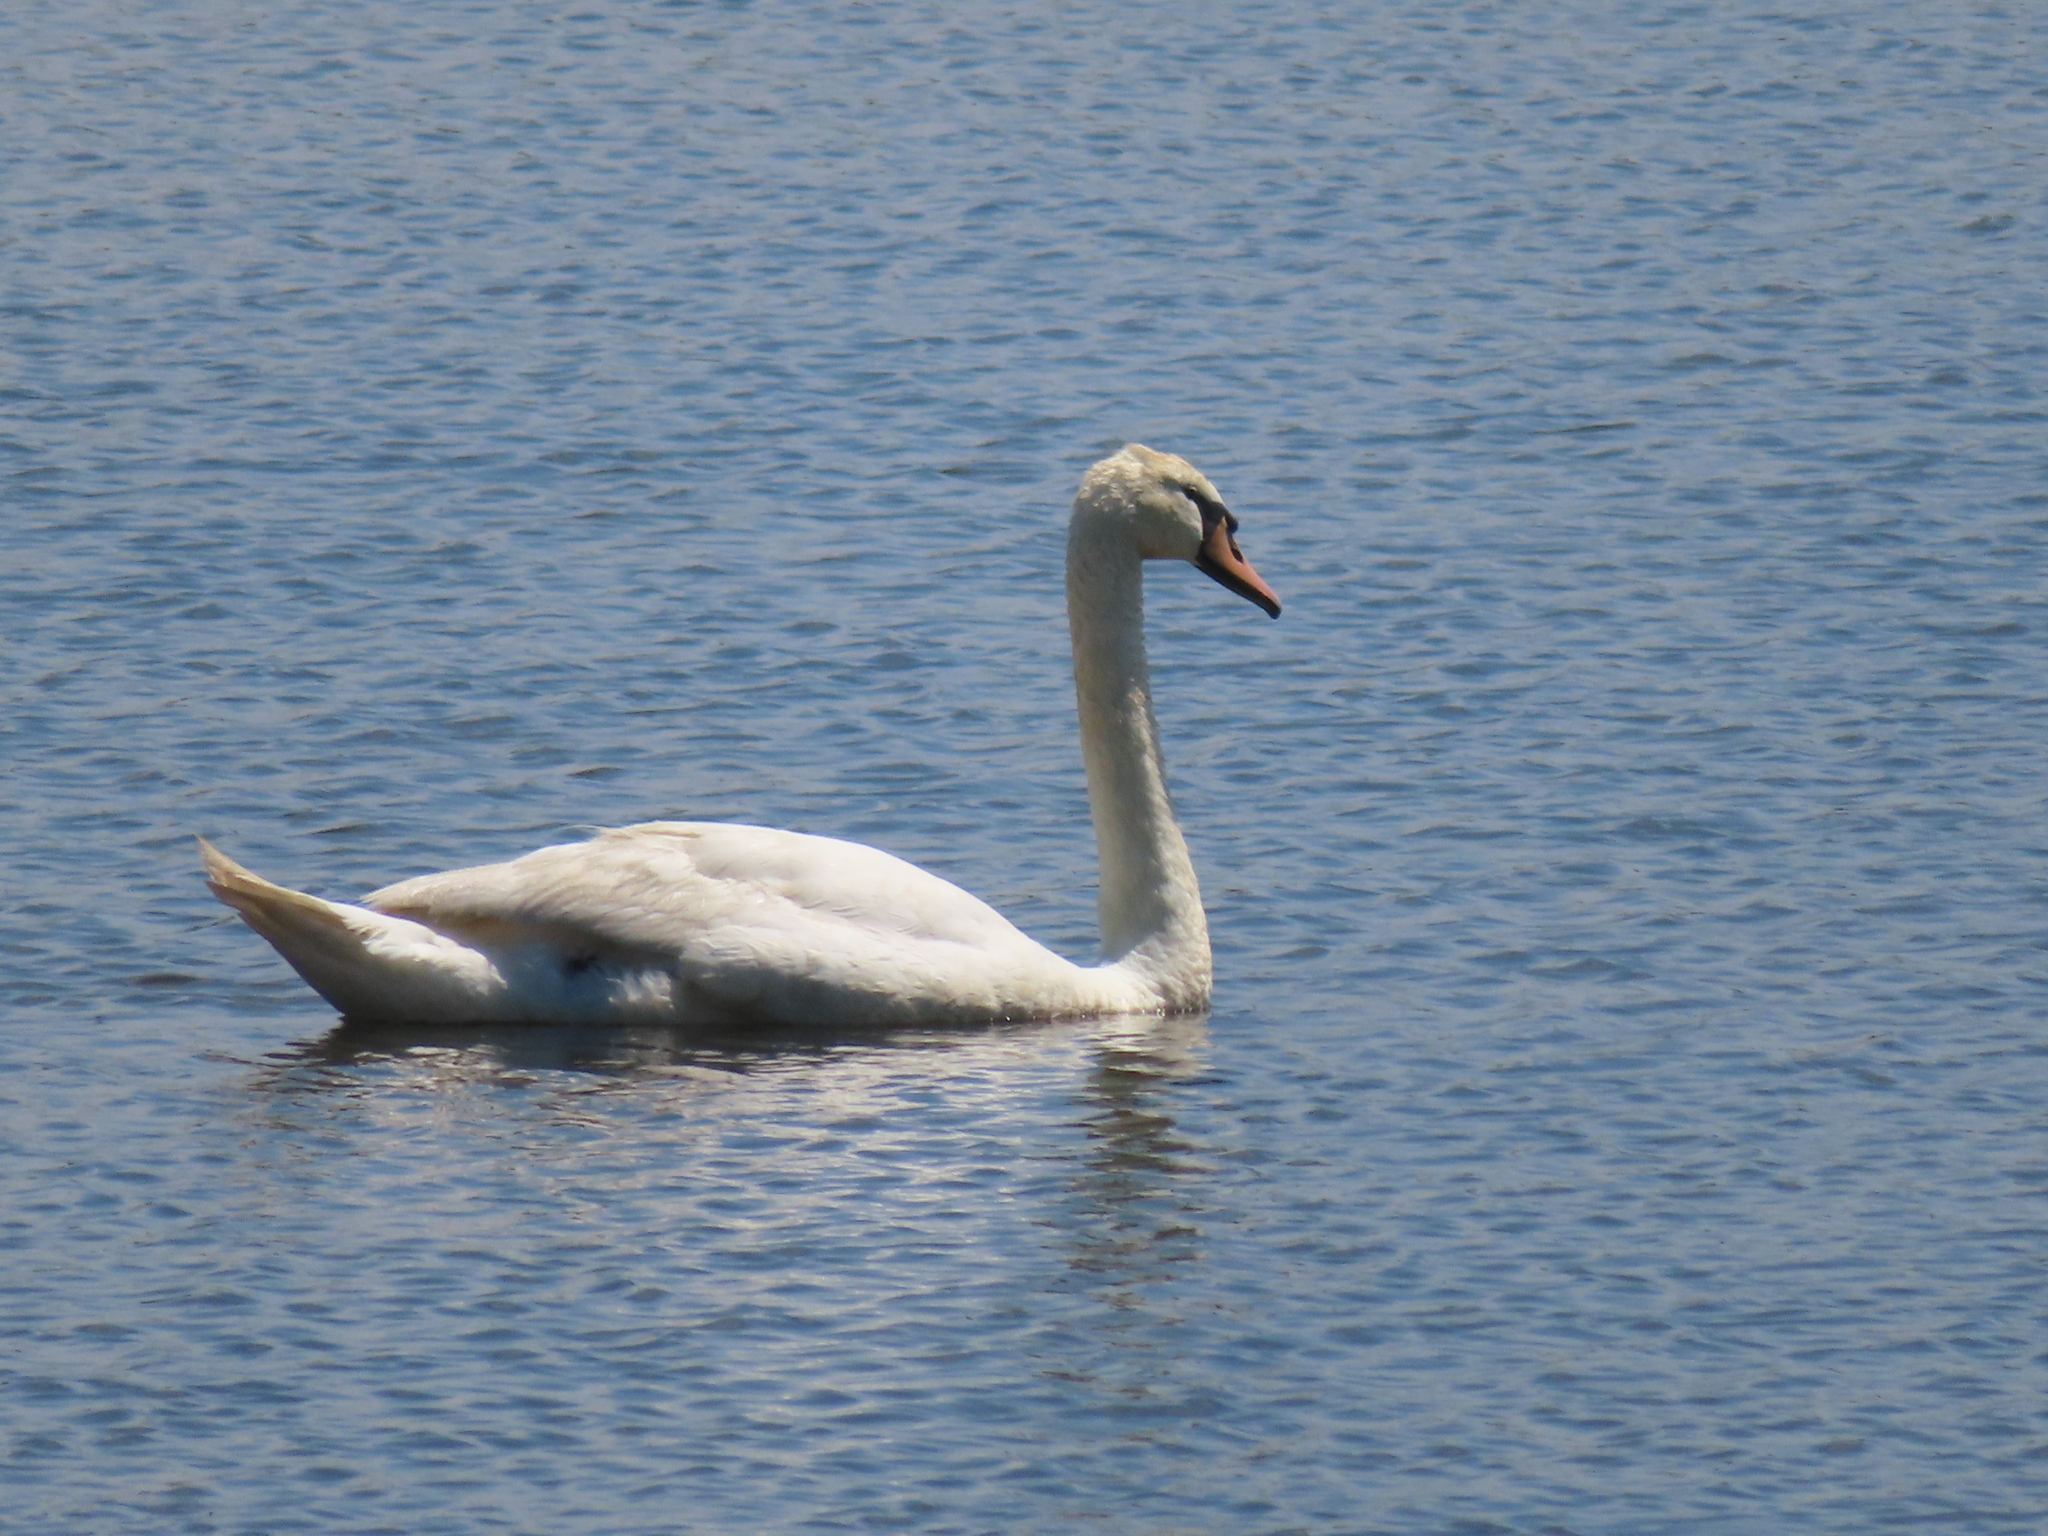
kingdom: Animalia
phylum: Chordata
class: Aves
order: Anseriformes
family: Anatidae
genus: Cygnus
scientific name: Cygnus olor
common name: Mute swan
